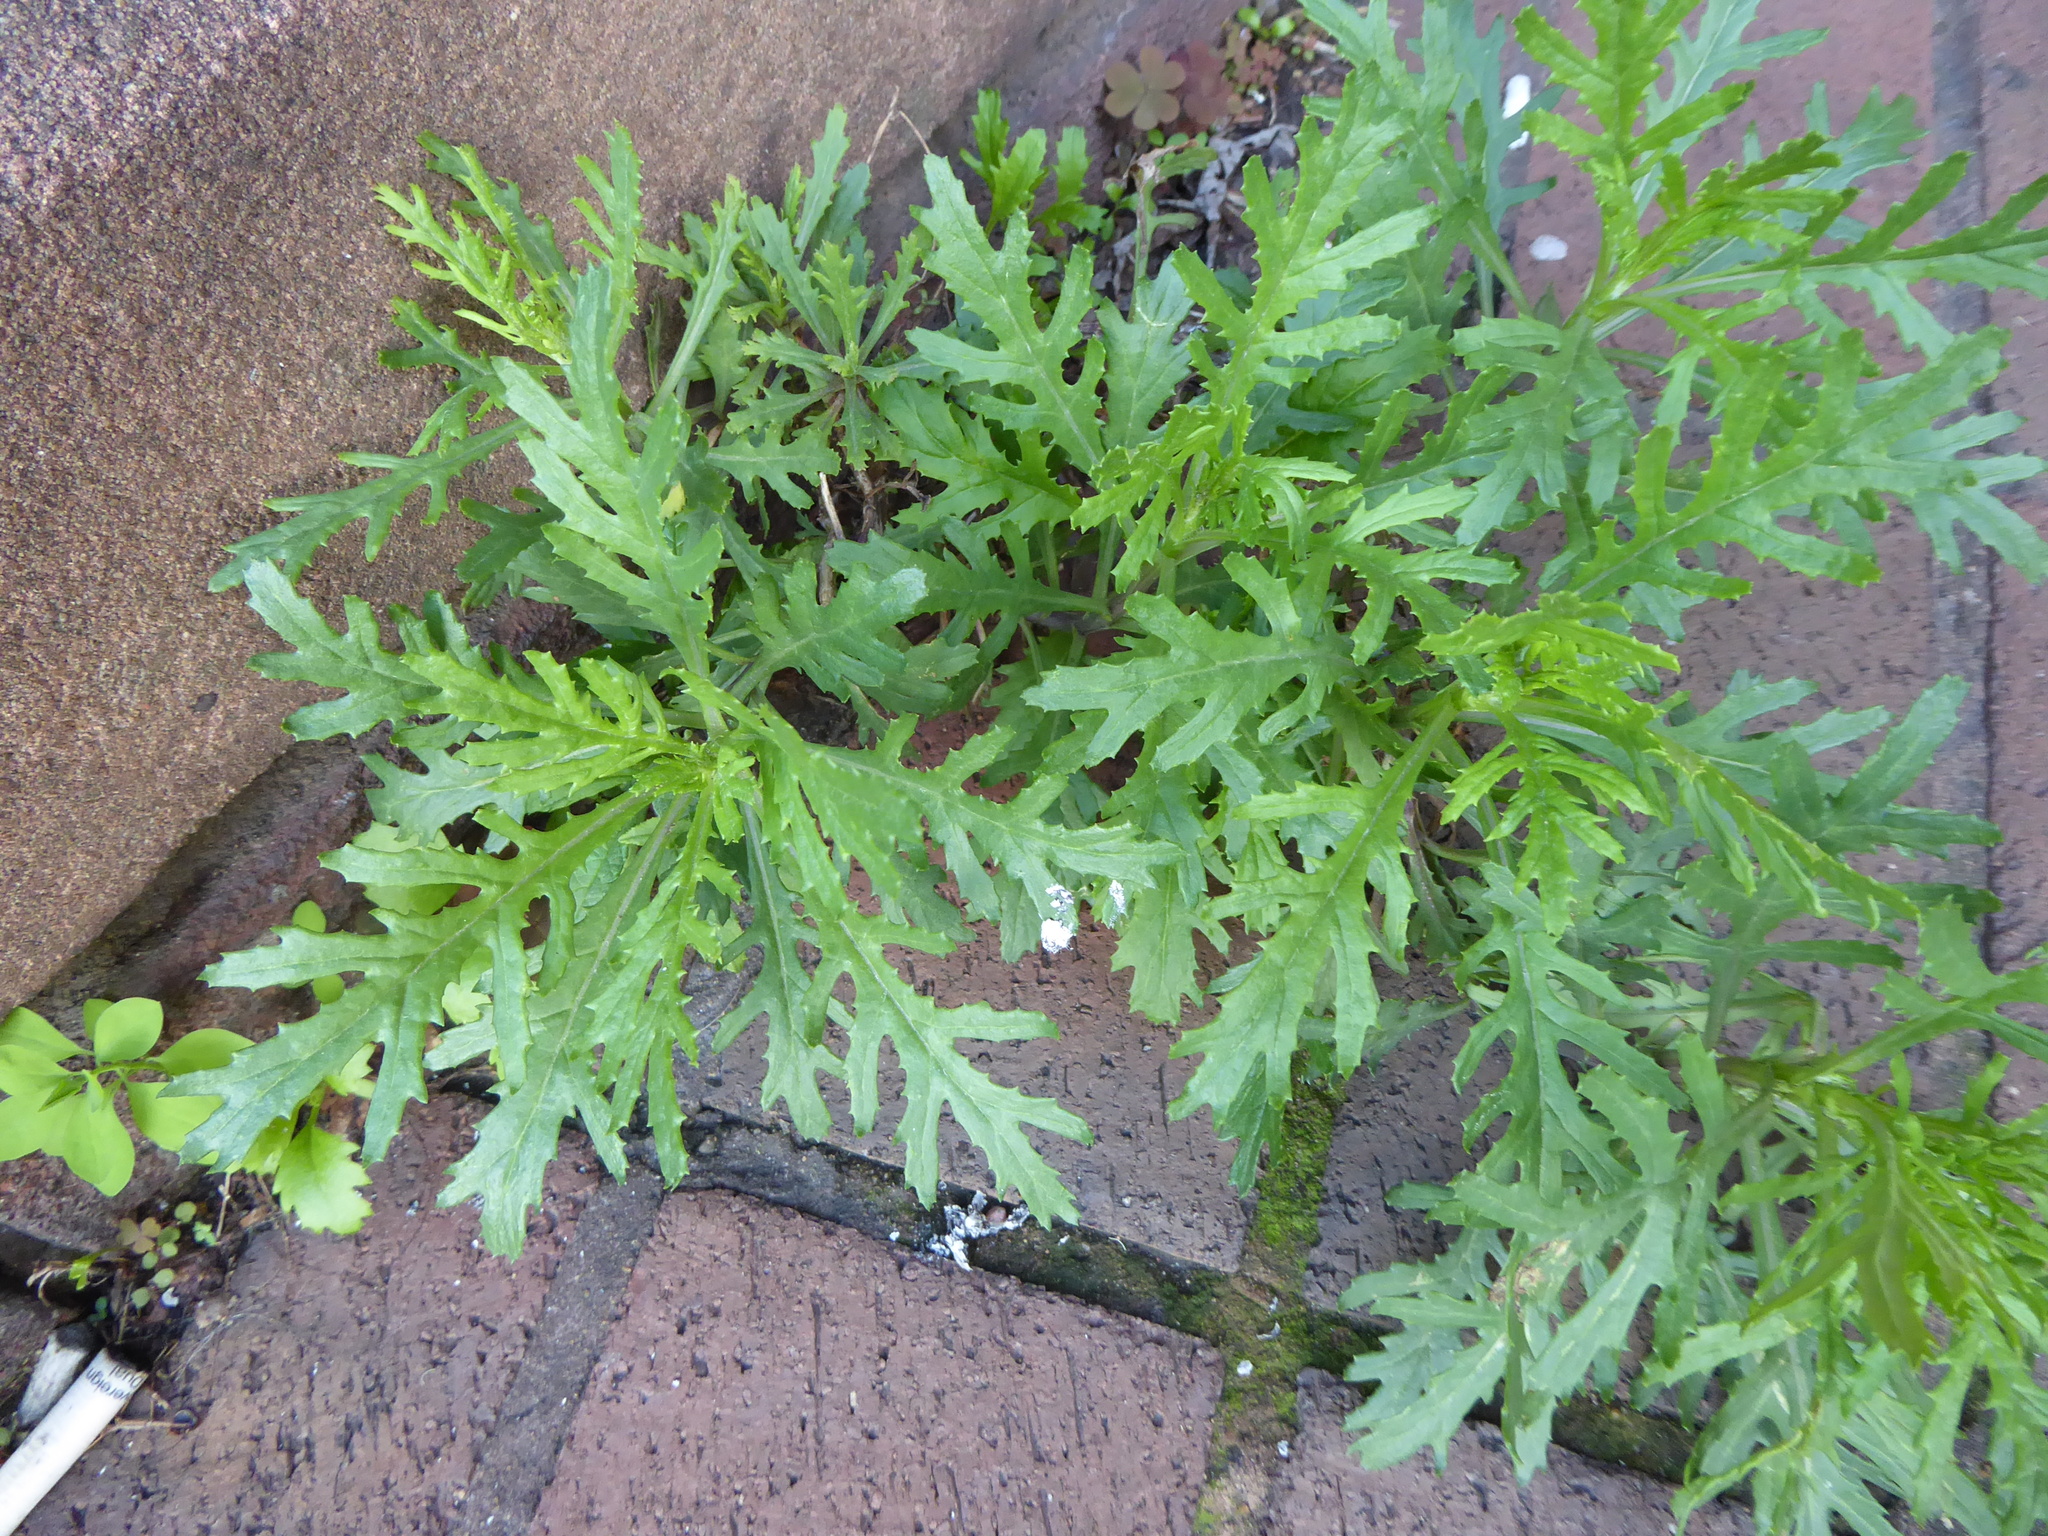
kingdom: Plantae
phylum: Tracheophyta
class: Magnoliopsida
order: Asterales
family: Asteraceae
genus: Senecio
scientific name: Senecio squalidus
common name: Oxford ragwort
